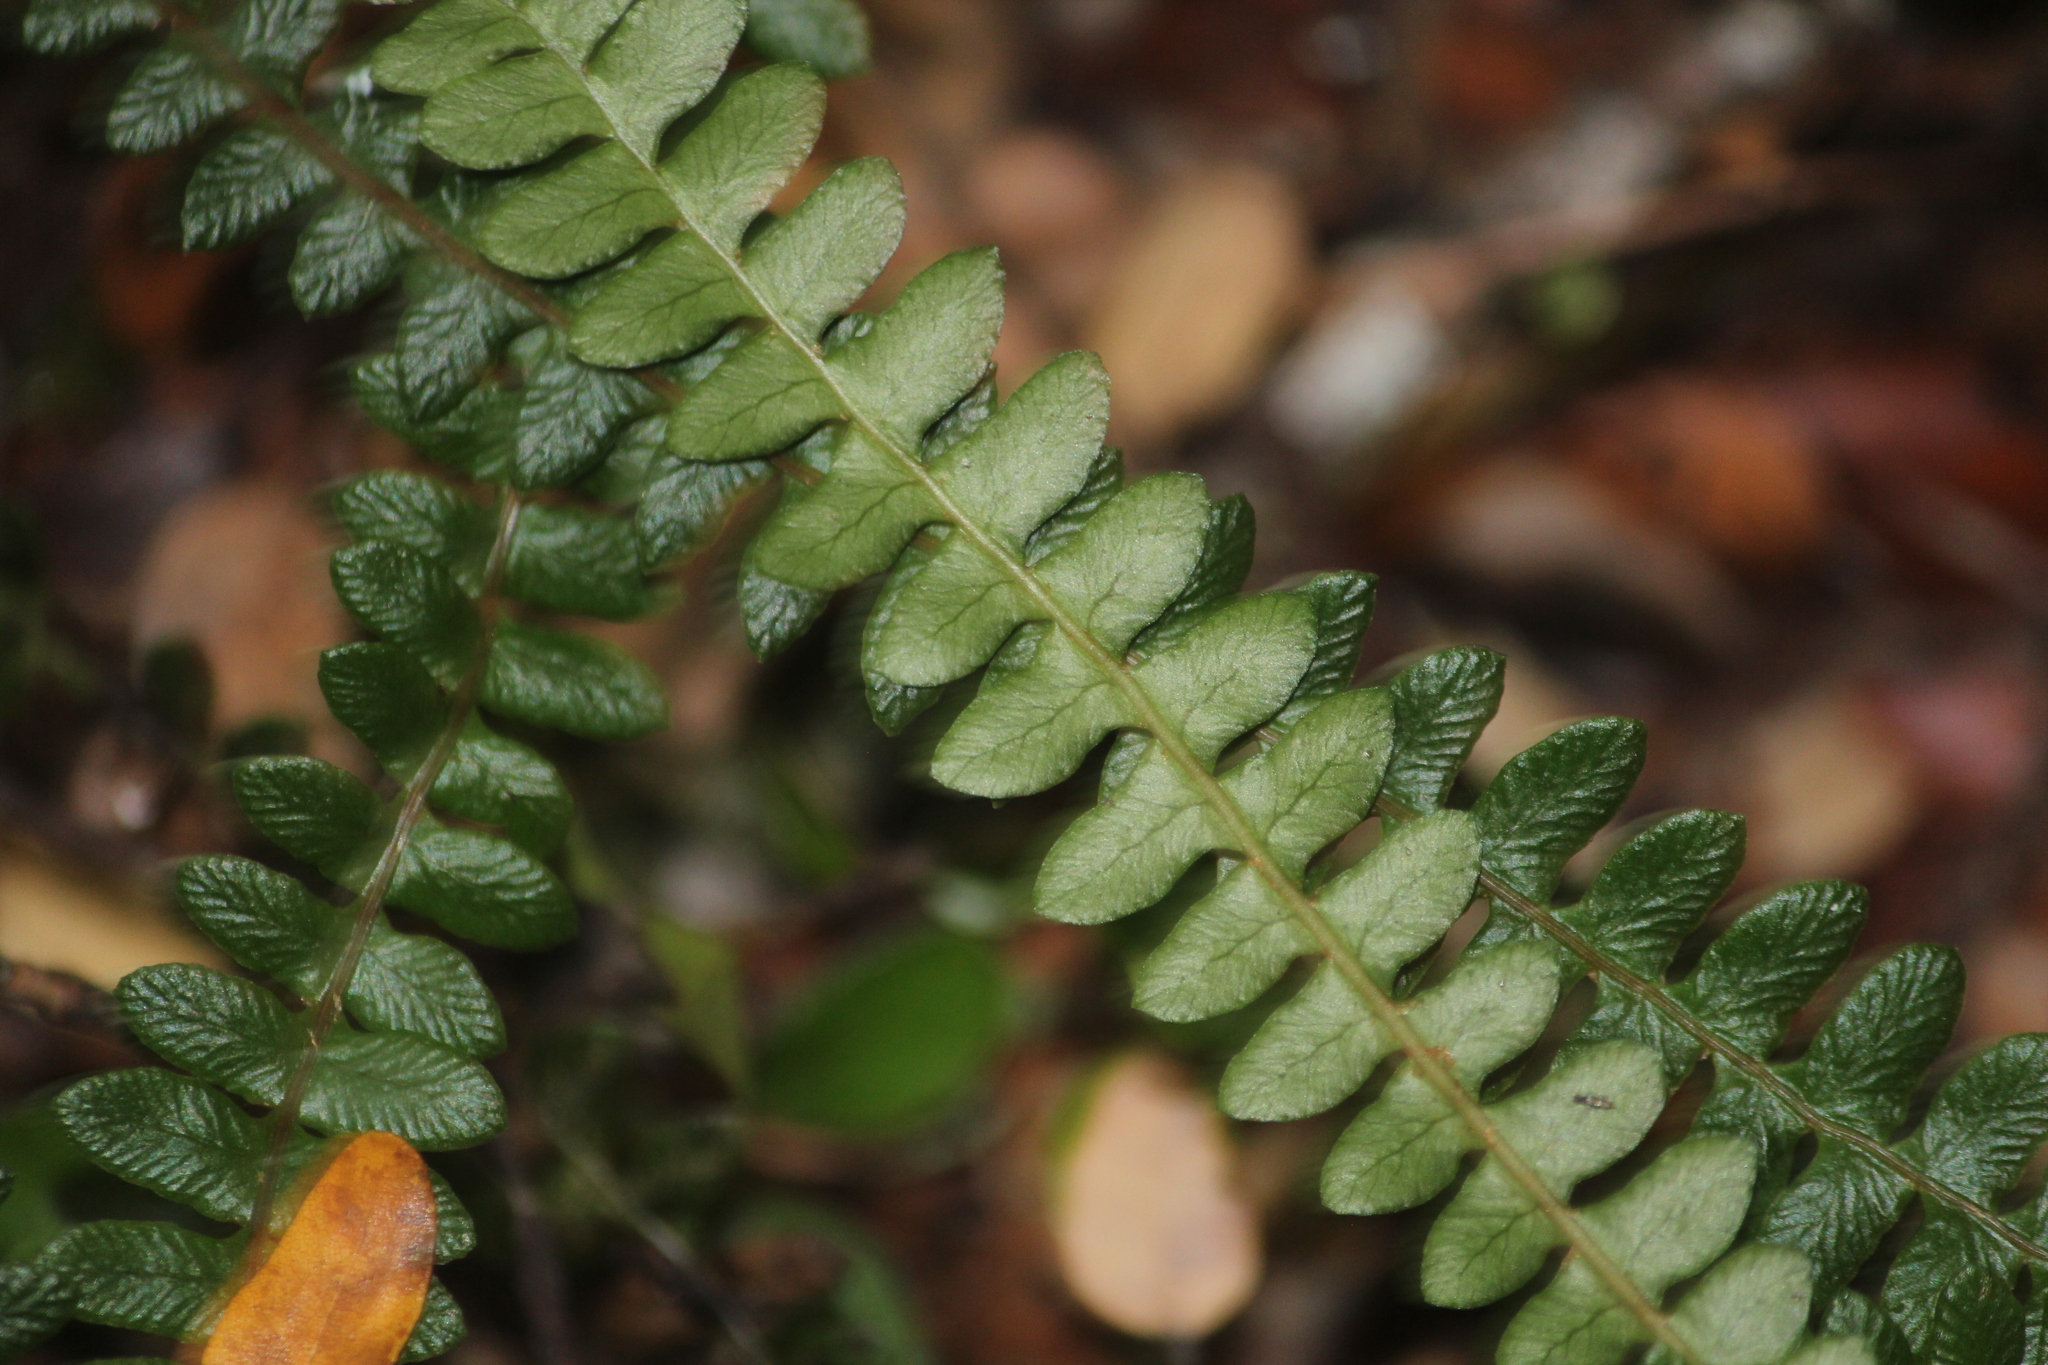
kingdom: Plantae
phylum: Tracheophyta
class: Polypodiopsida
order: Polypodiales
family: Blechnaceae
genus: Austroblechnum
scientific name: Austroblechnum penna-marina
